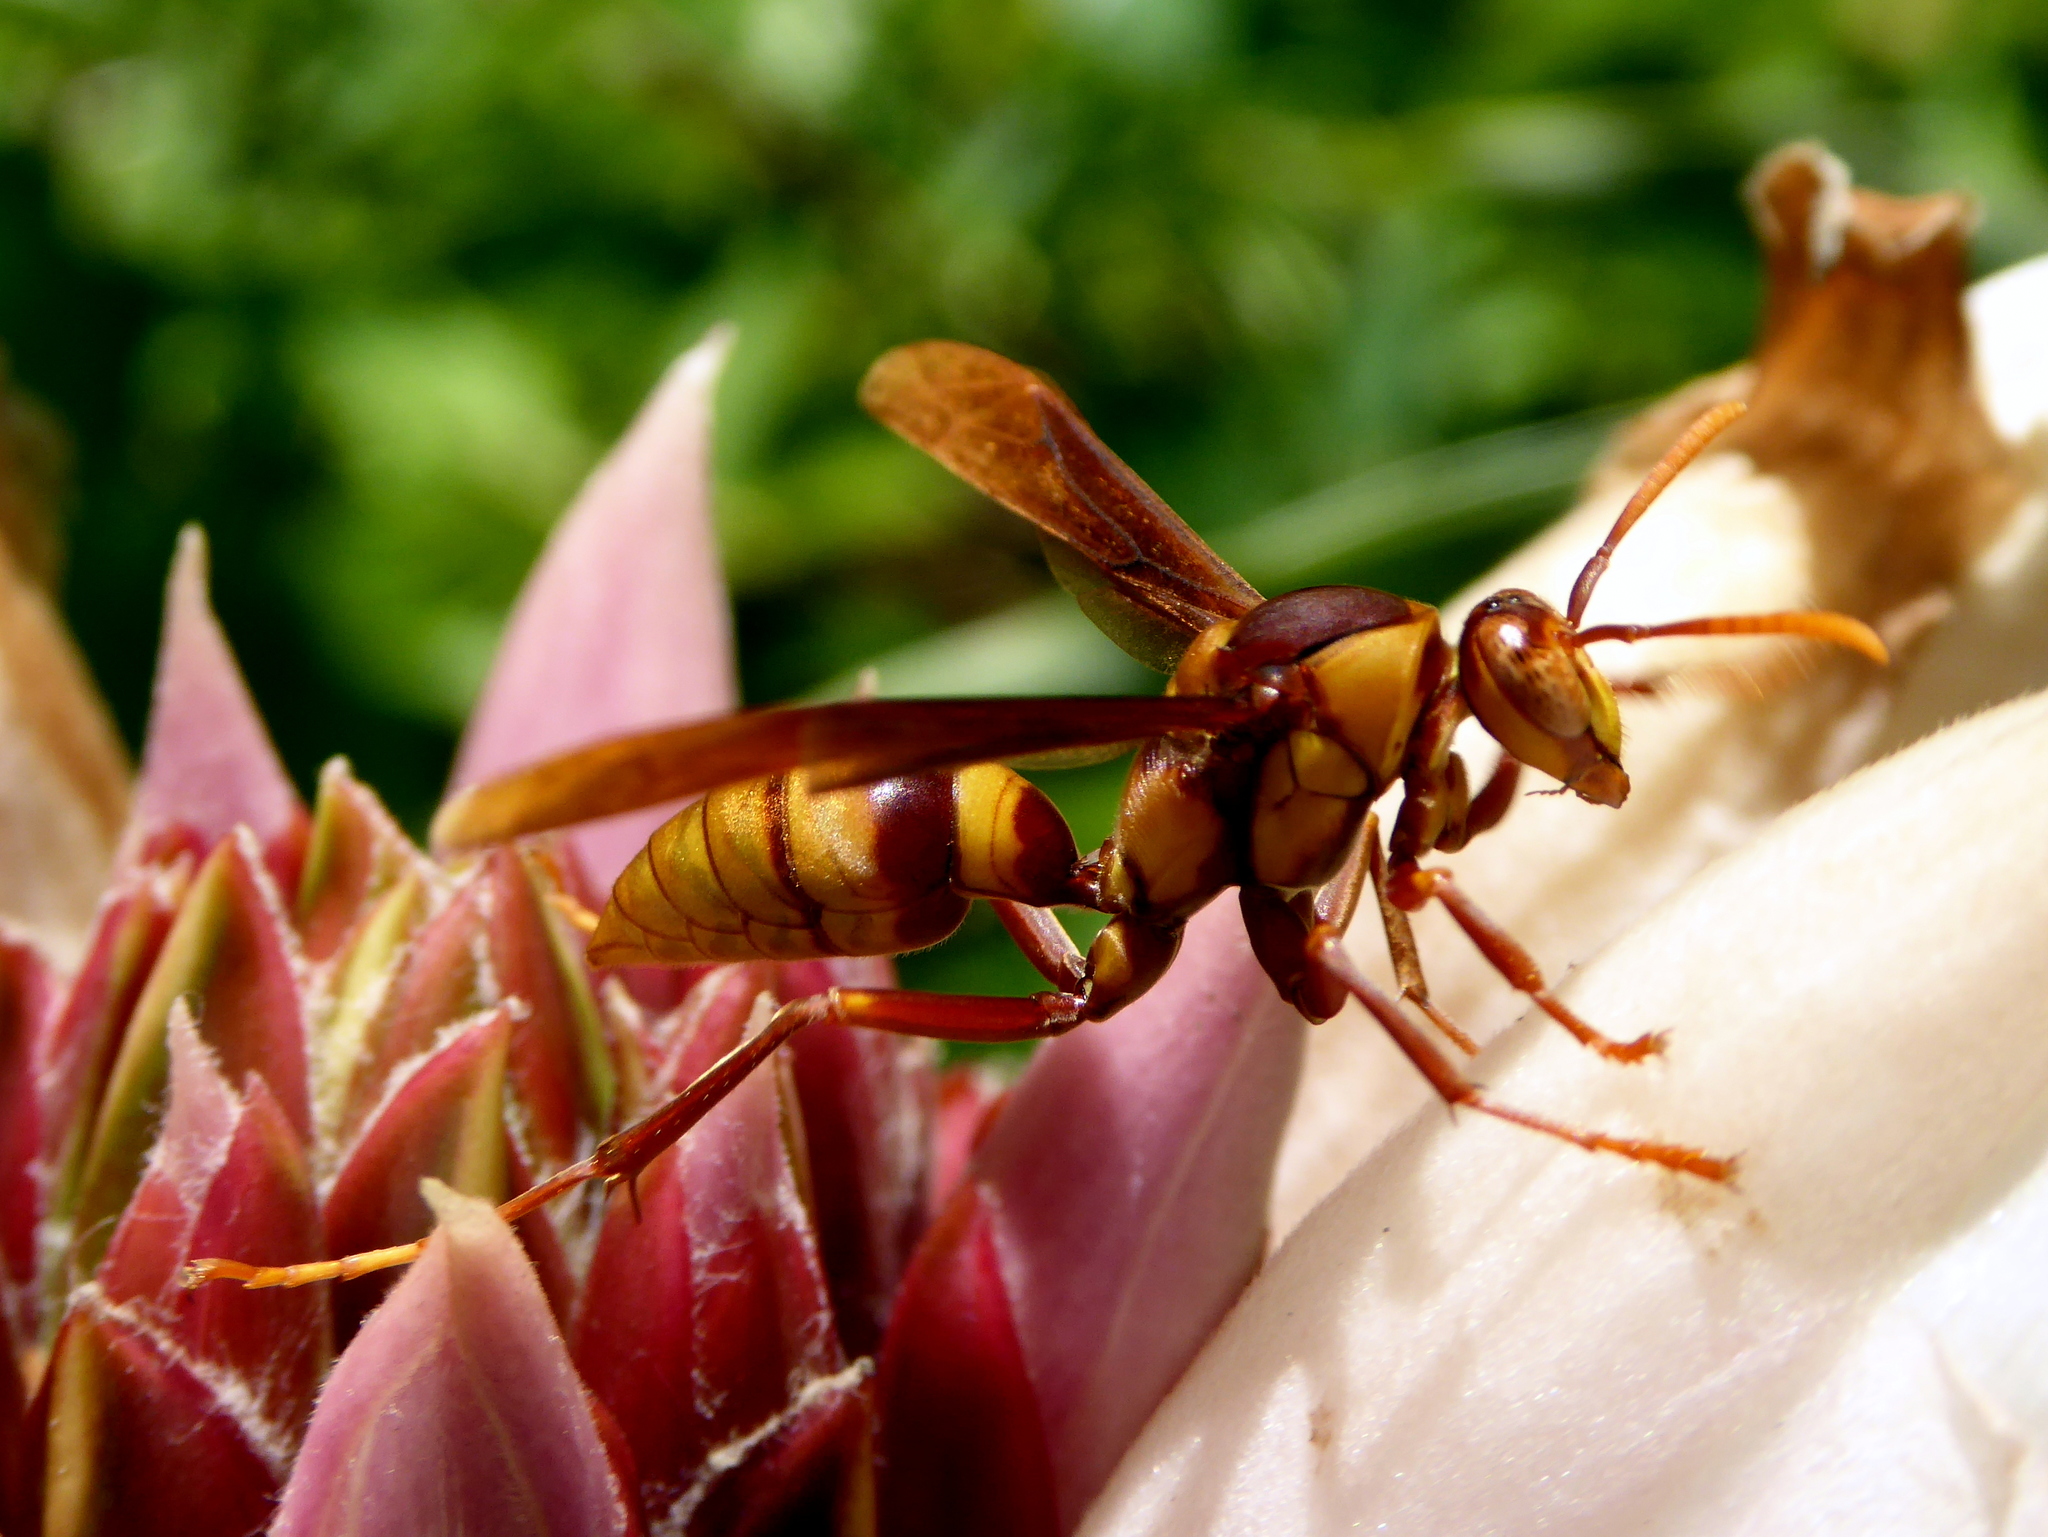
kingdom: Animalia
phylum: Arthropoda
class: Insecta
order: Hymenoptera
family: Eumenidae
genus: Polistes
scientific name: Polistes carnifex
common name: Paper wasp
